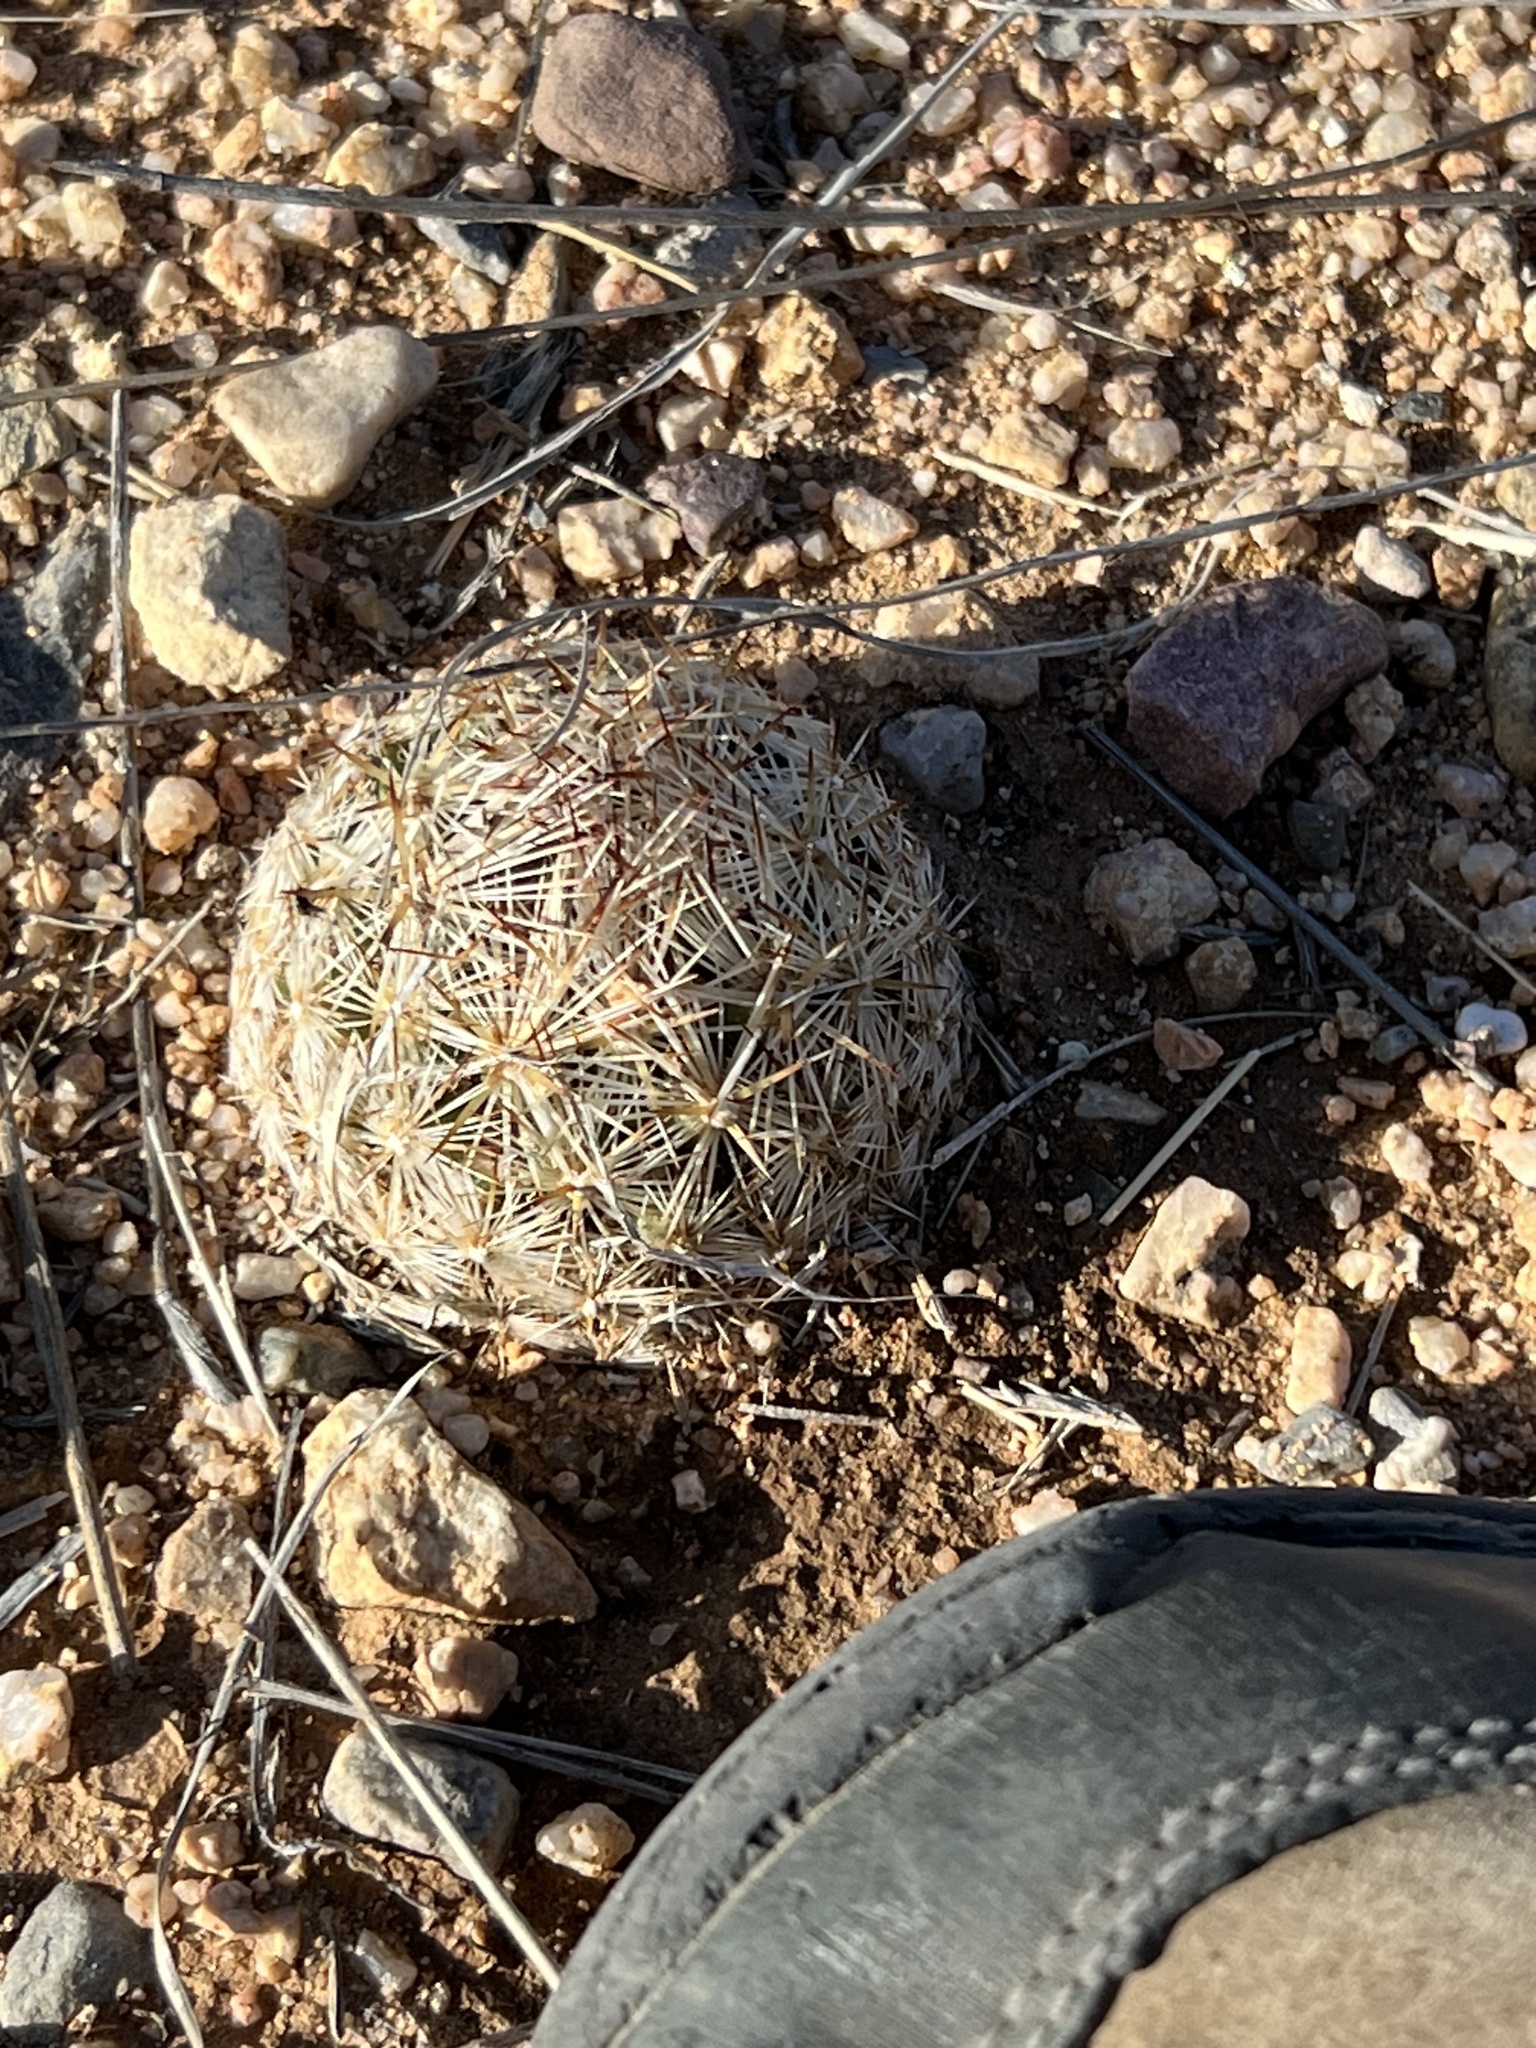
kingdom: Plantae
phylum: Tracheophyta
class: Magnoliopsida
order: Caryophyllales
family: Cactaceae
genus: Pelecyphora
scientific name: Pelecyphora vivipara
